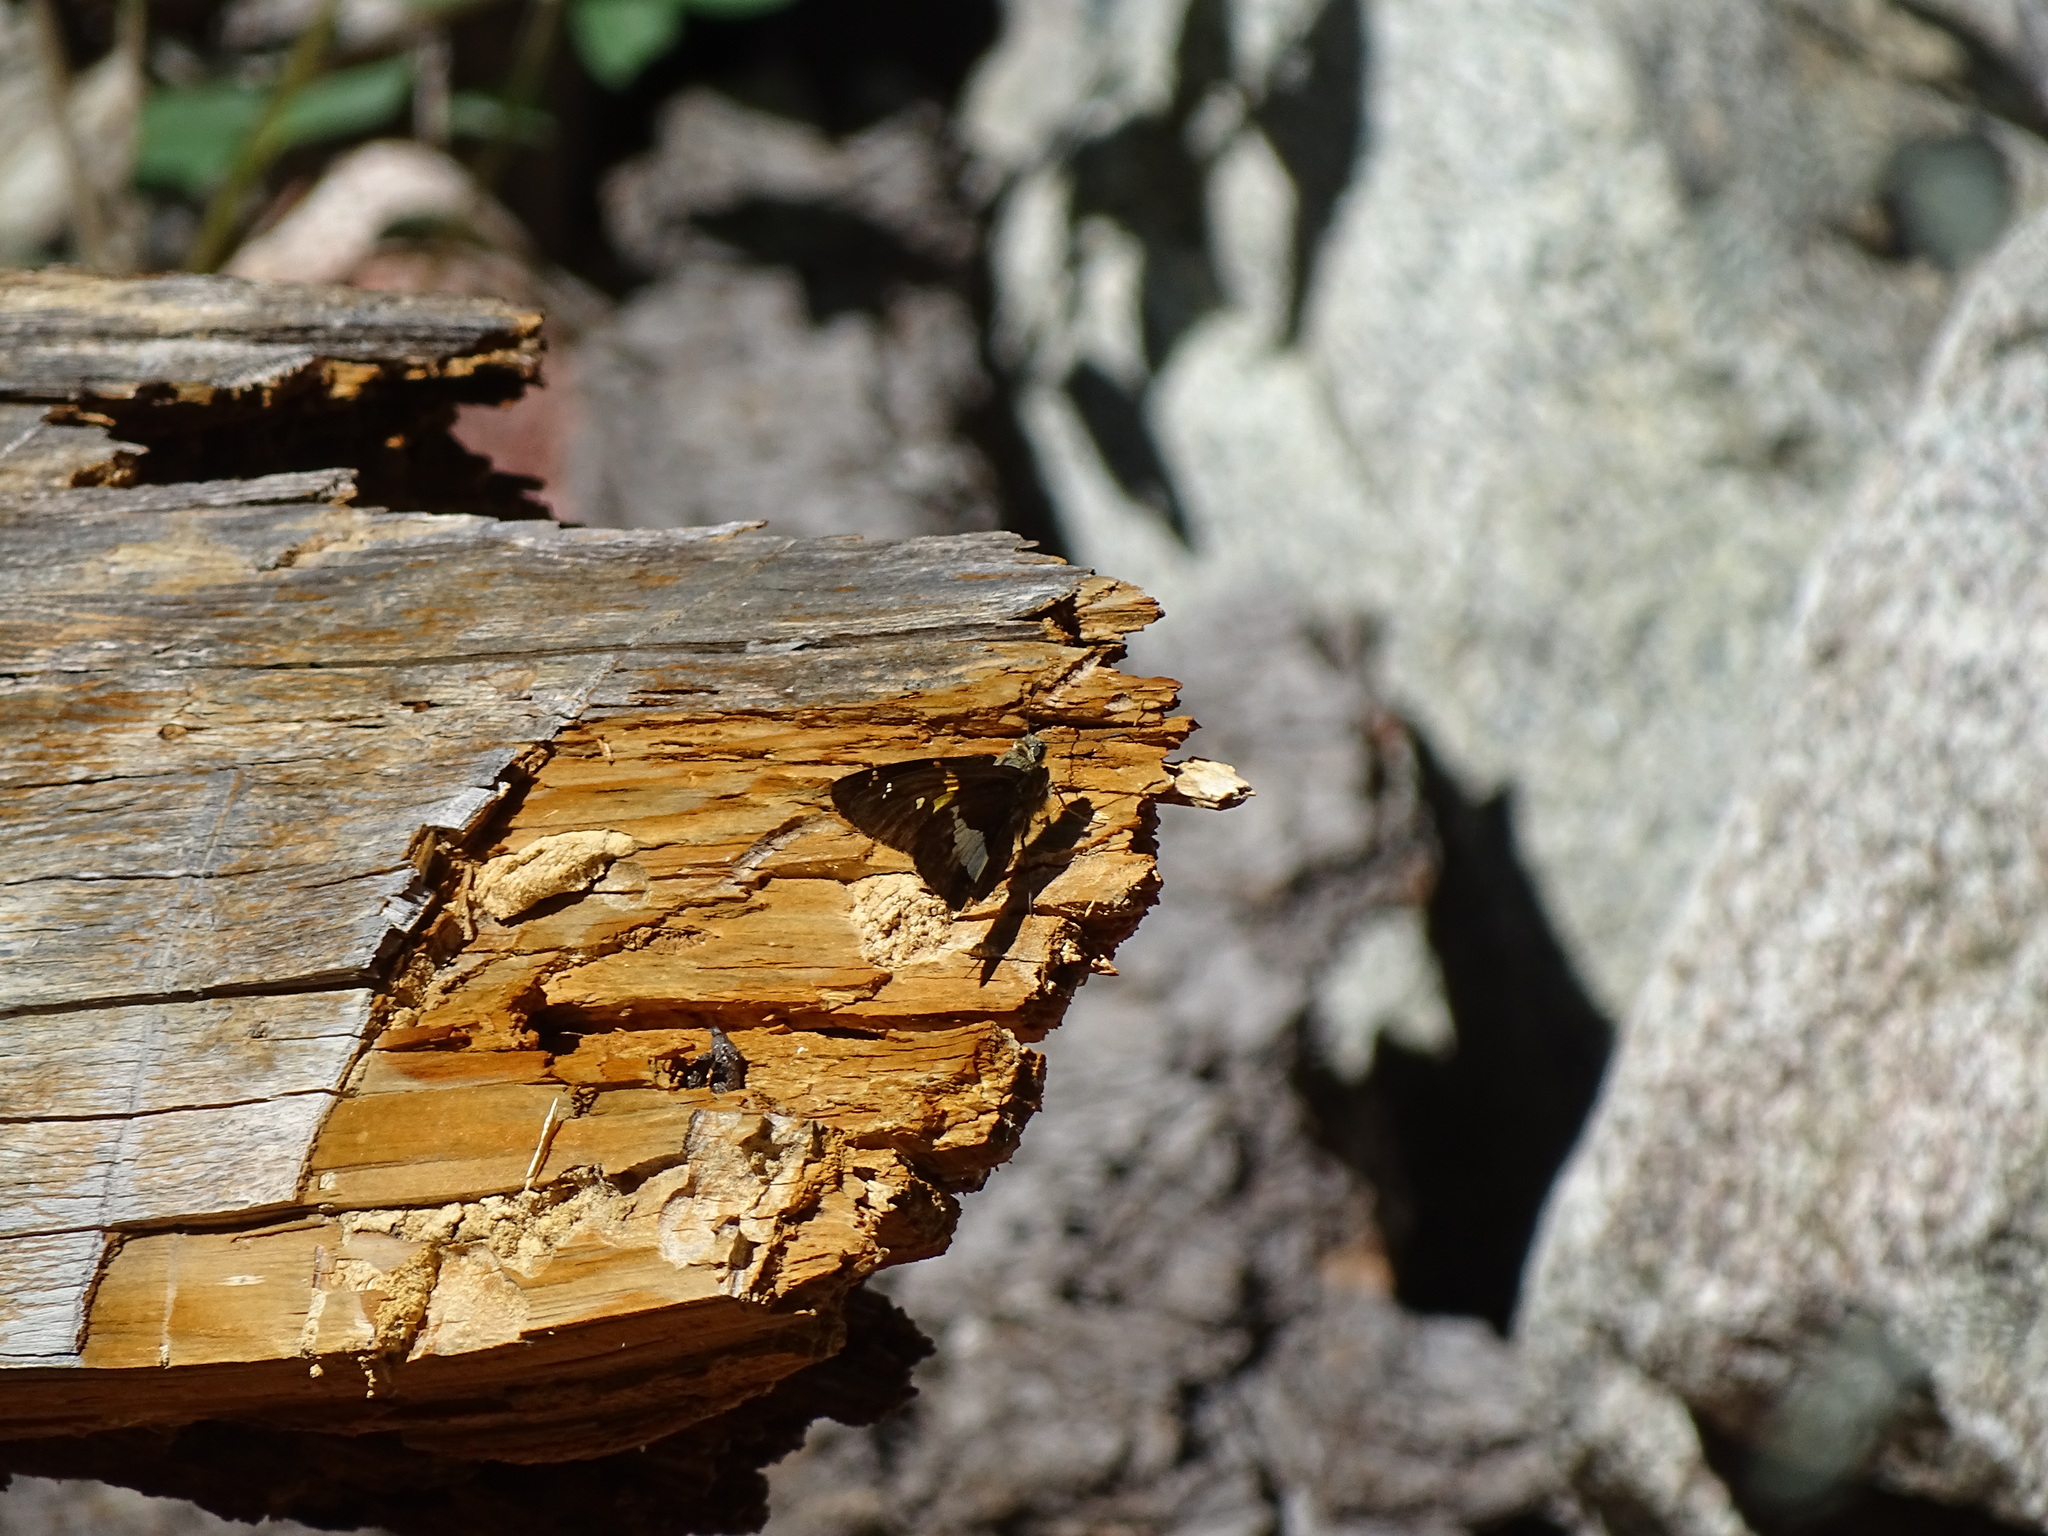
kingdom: Animalia
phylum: Arthropoda
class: Insecta
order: Lepidoptera
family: Hesperiidae
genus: Epargyreus
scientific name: Epargyreus clarus
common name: Silver-spotted skipper
